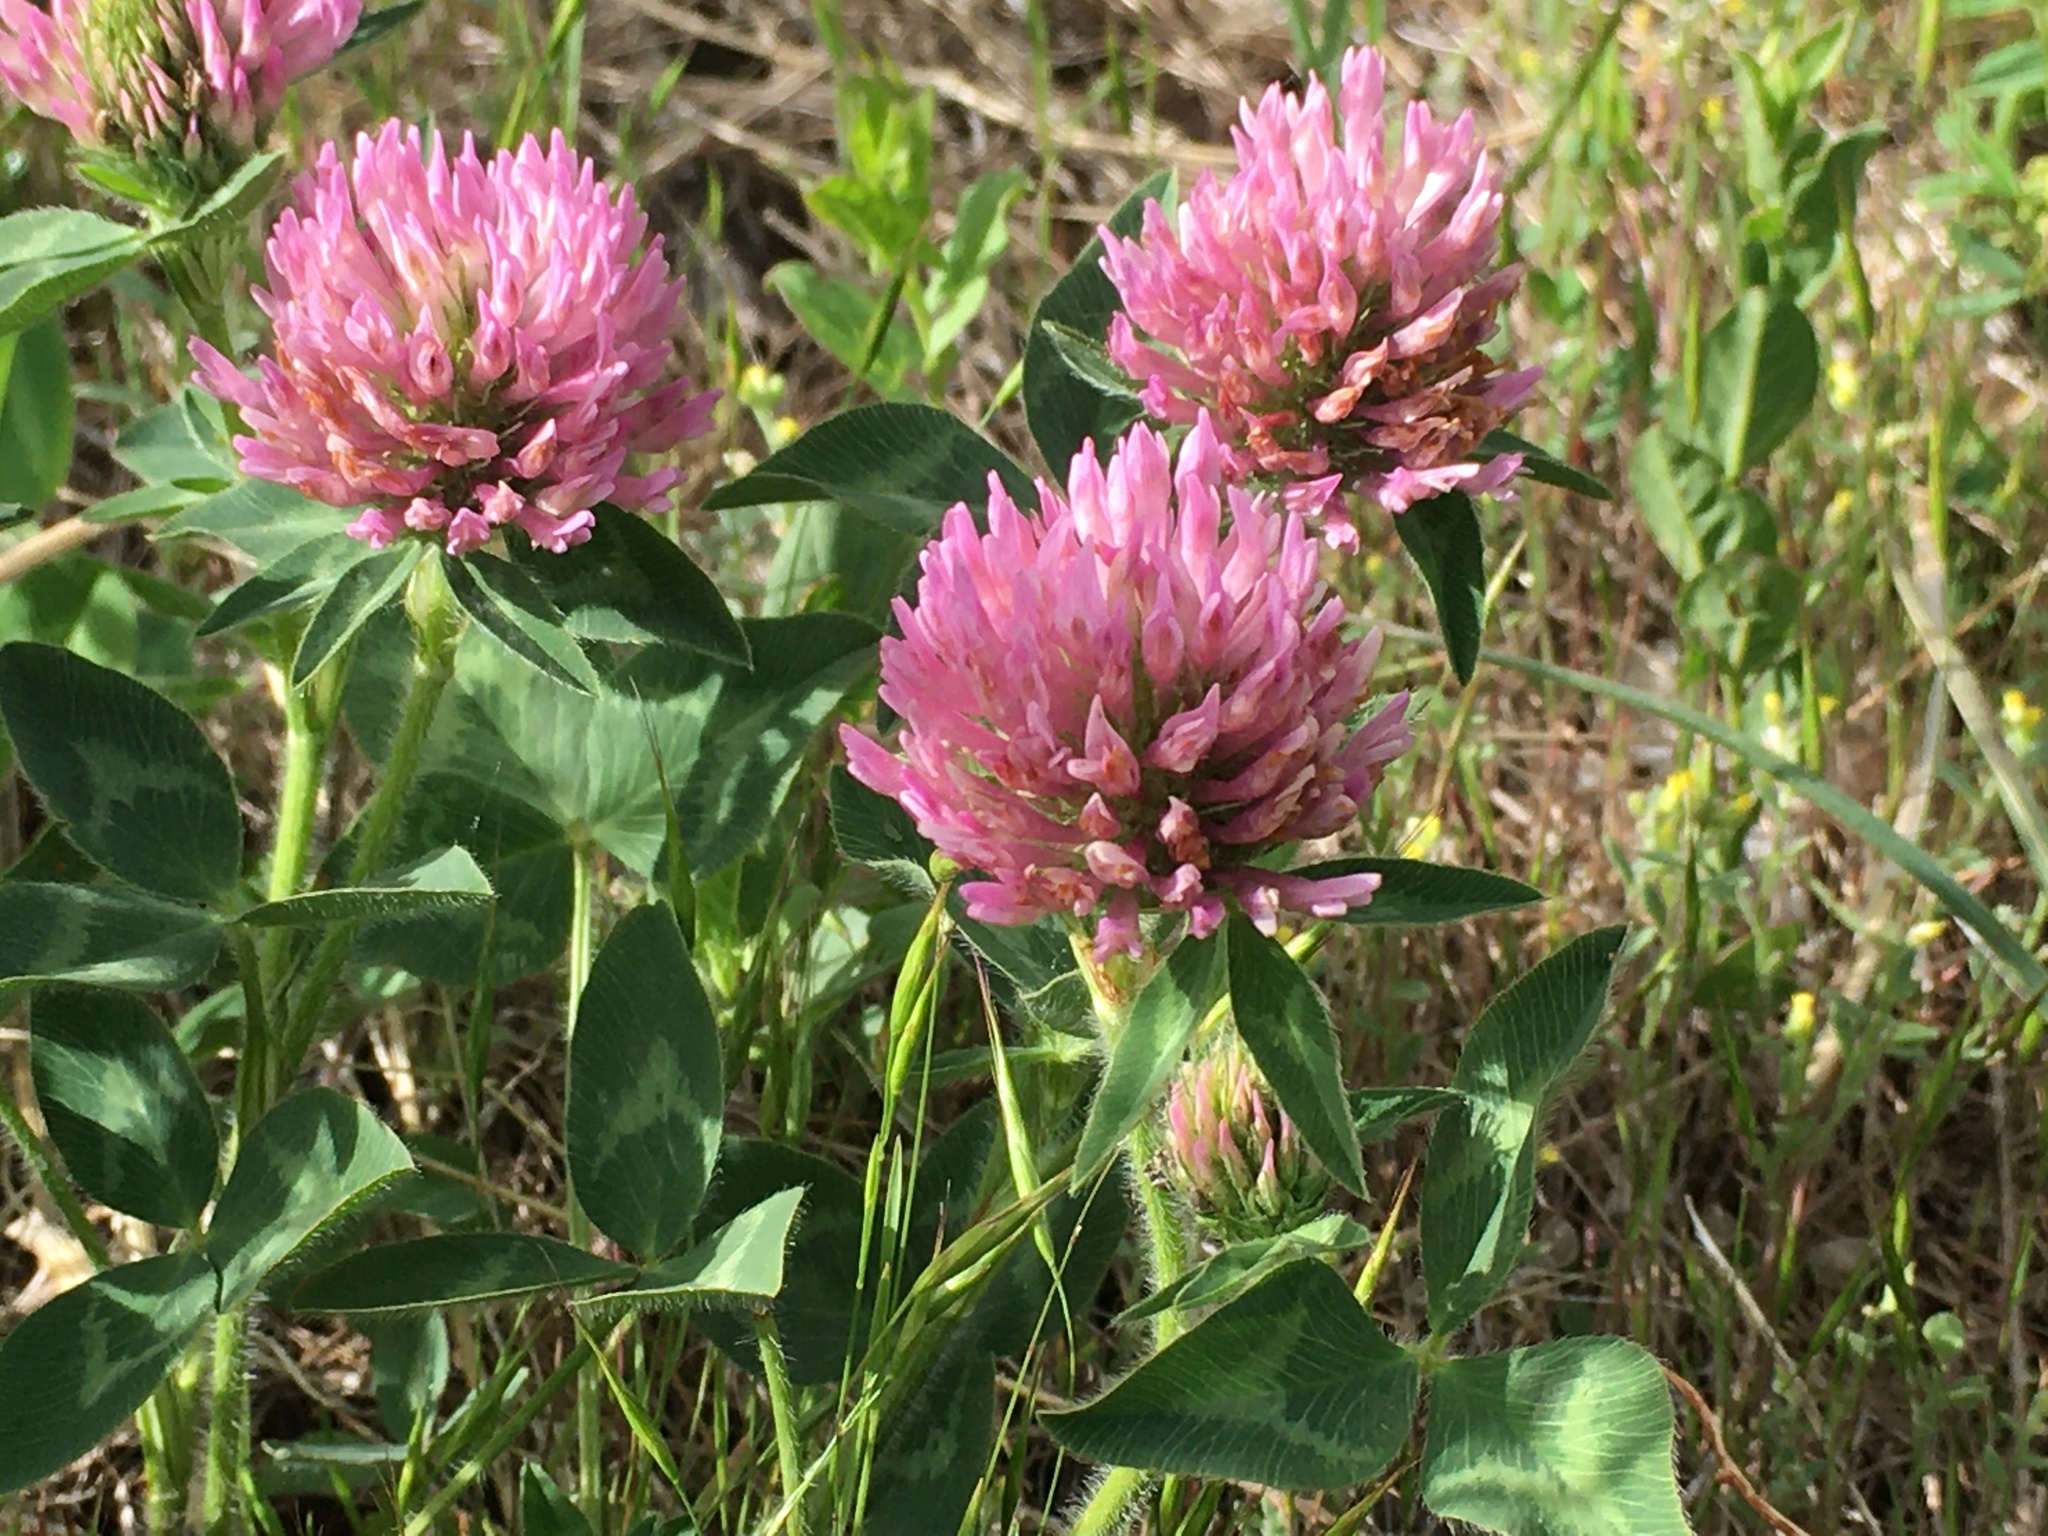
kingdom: Plantae
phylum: Tracheophyta
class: Magnoliopsida
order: Fabales
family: Fabaceae
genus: Trifolium
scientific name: Trifolium pratense
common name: Red clover
